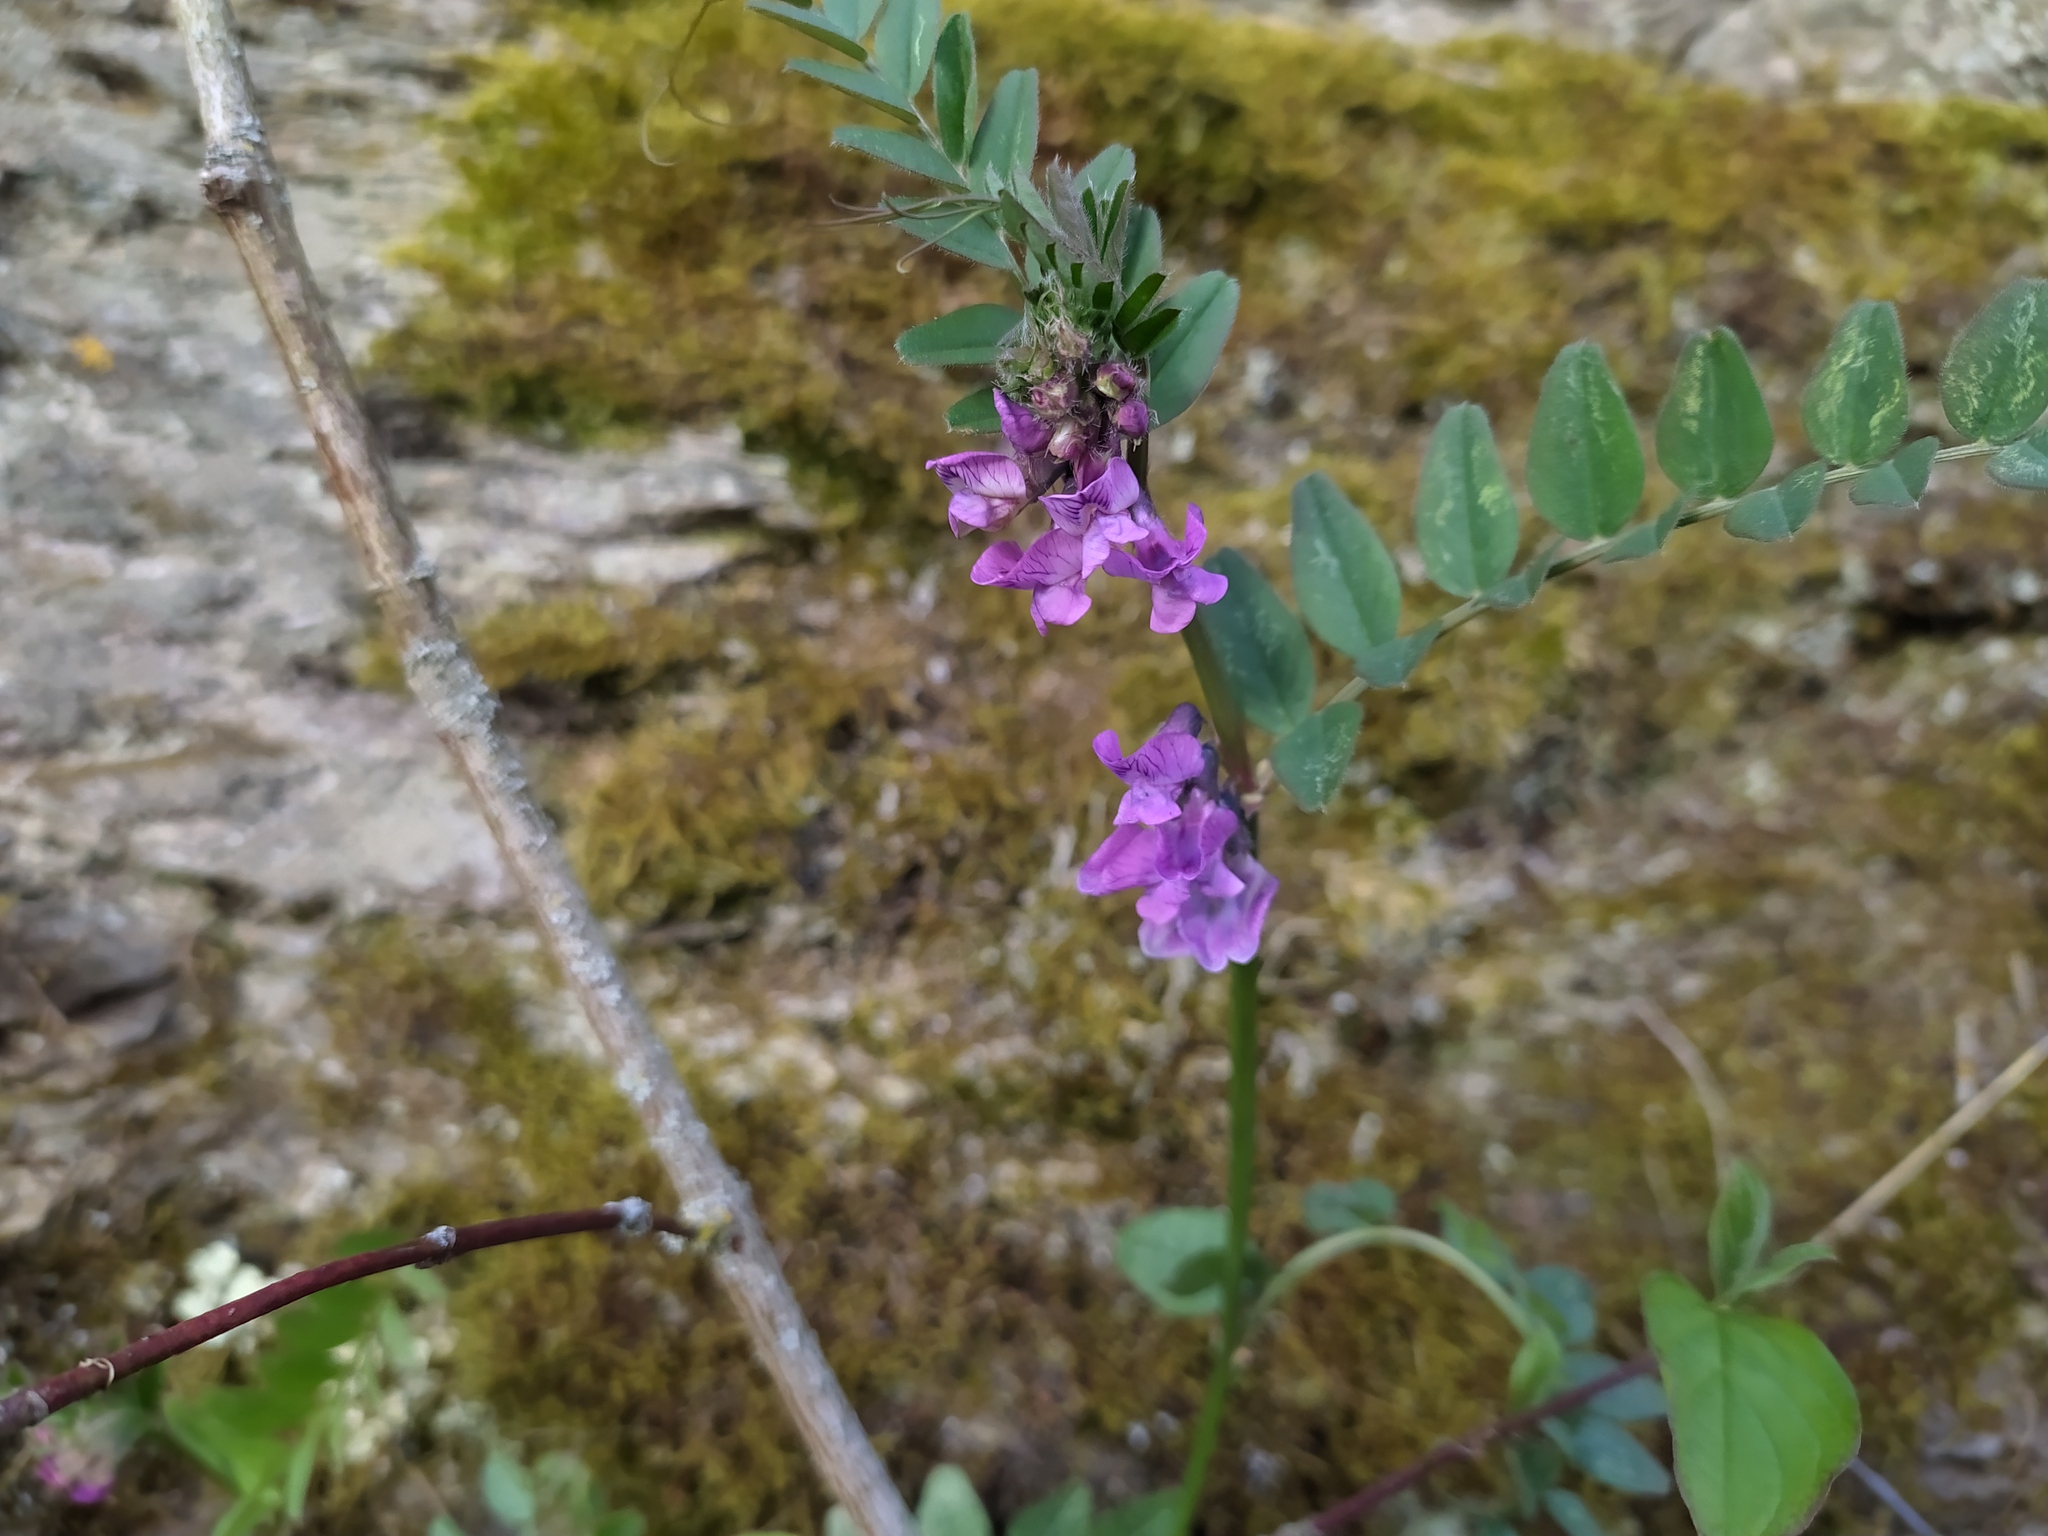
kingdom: Plantae
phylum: Tracheophyta
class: Magnoliopsida
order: Fabales
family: Fabaceae
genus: Vicia
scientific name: Vicia sepium
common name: Bush vetch
